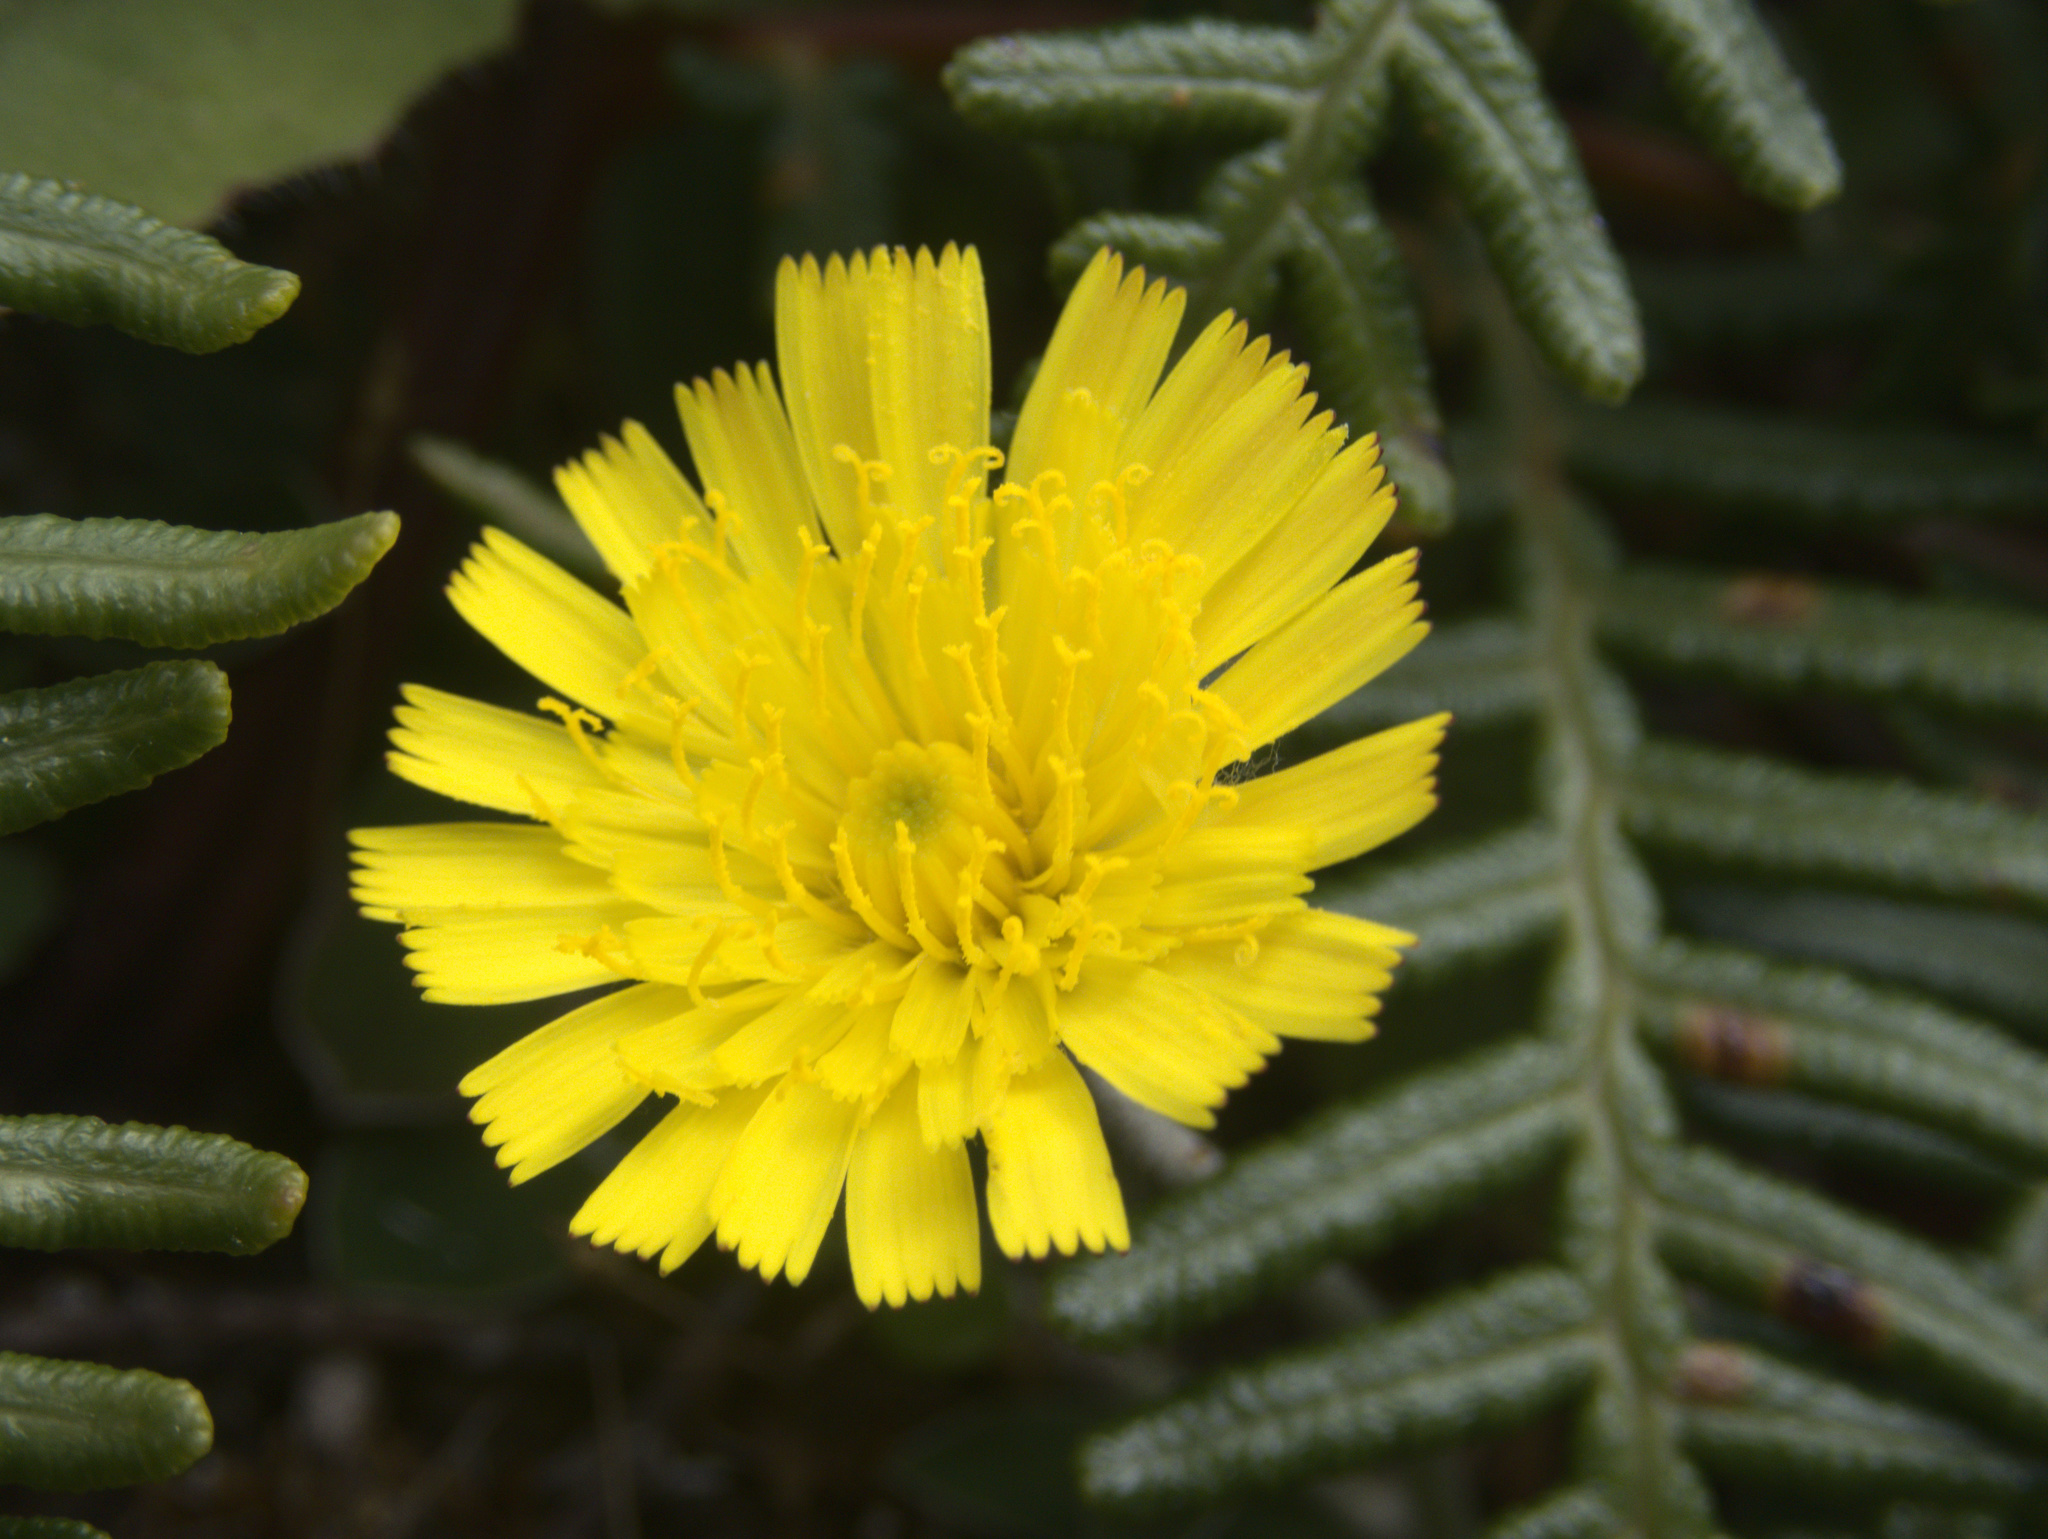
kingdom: Plantae
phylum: Tracheophyta
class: Magnoliopsida
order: Asterales
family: Asteraceae
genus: Pilosella
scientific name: Pilosella officinarum
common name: Mouse-ear hawkweed
